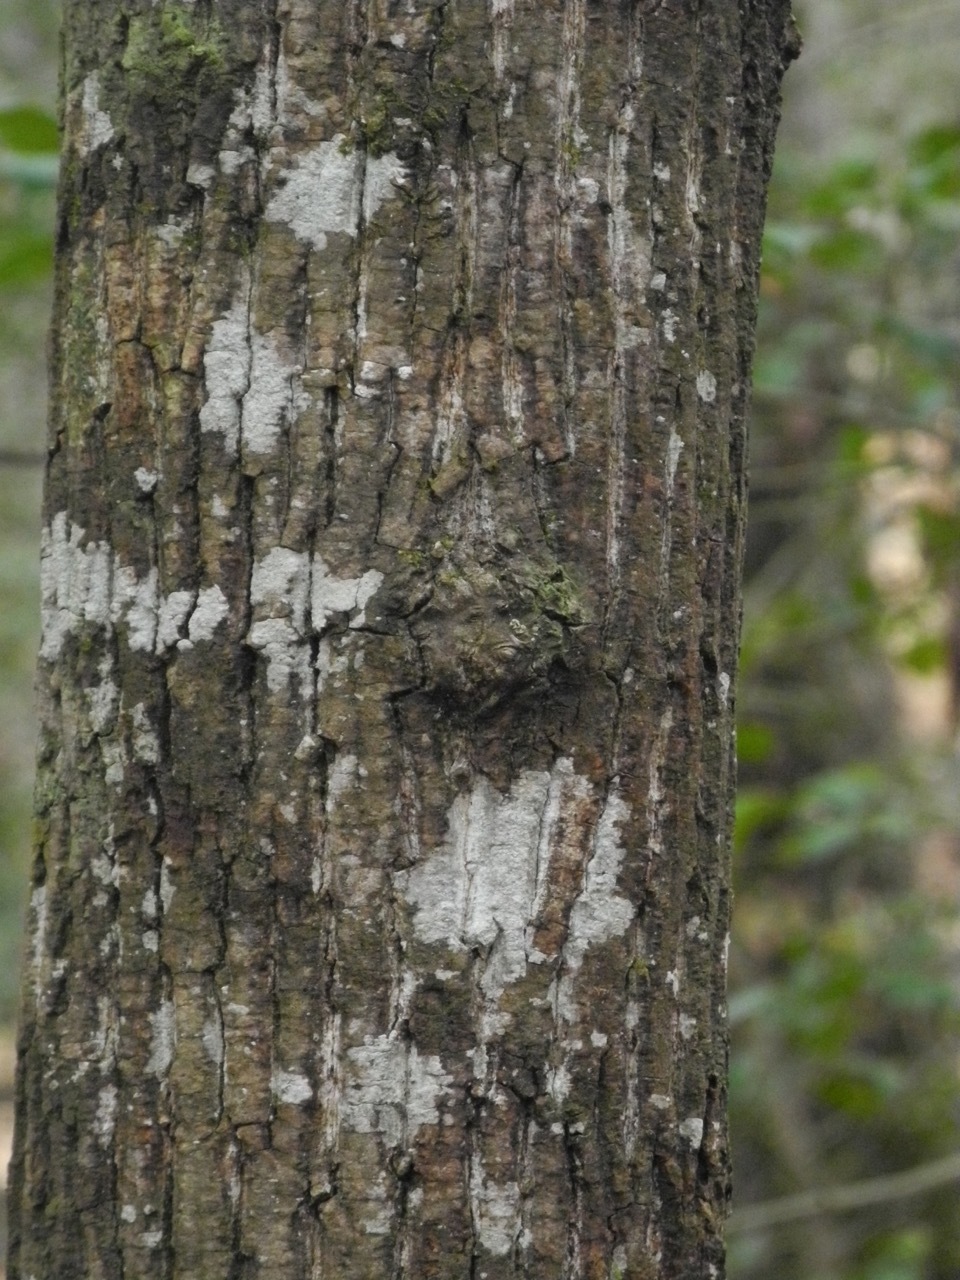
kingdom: Plantae
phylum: Tracheophyta
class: Magnoliopsida
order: Fagales
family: Juglandaceae
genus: Carya
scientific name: Carya alba
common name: Mockernut hickory
